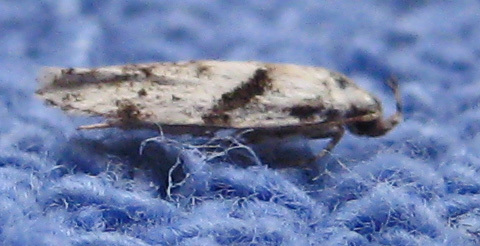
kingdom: Animalia
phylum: Arthropoda
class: Insecta
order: Lepidoptera
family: Gelechiidae
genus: Arogalea
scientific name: Arogalea cristifasciella
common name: White stripe-backed moth
